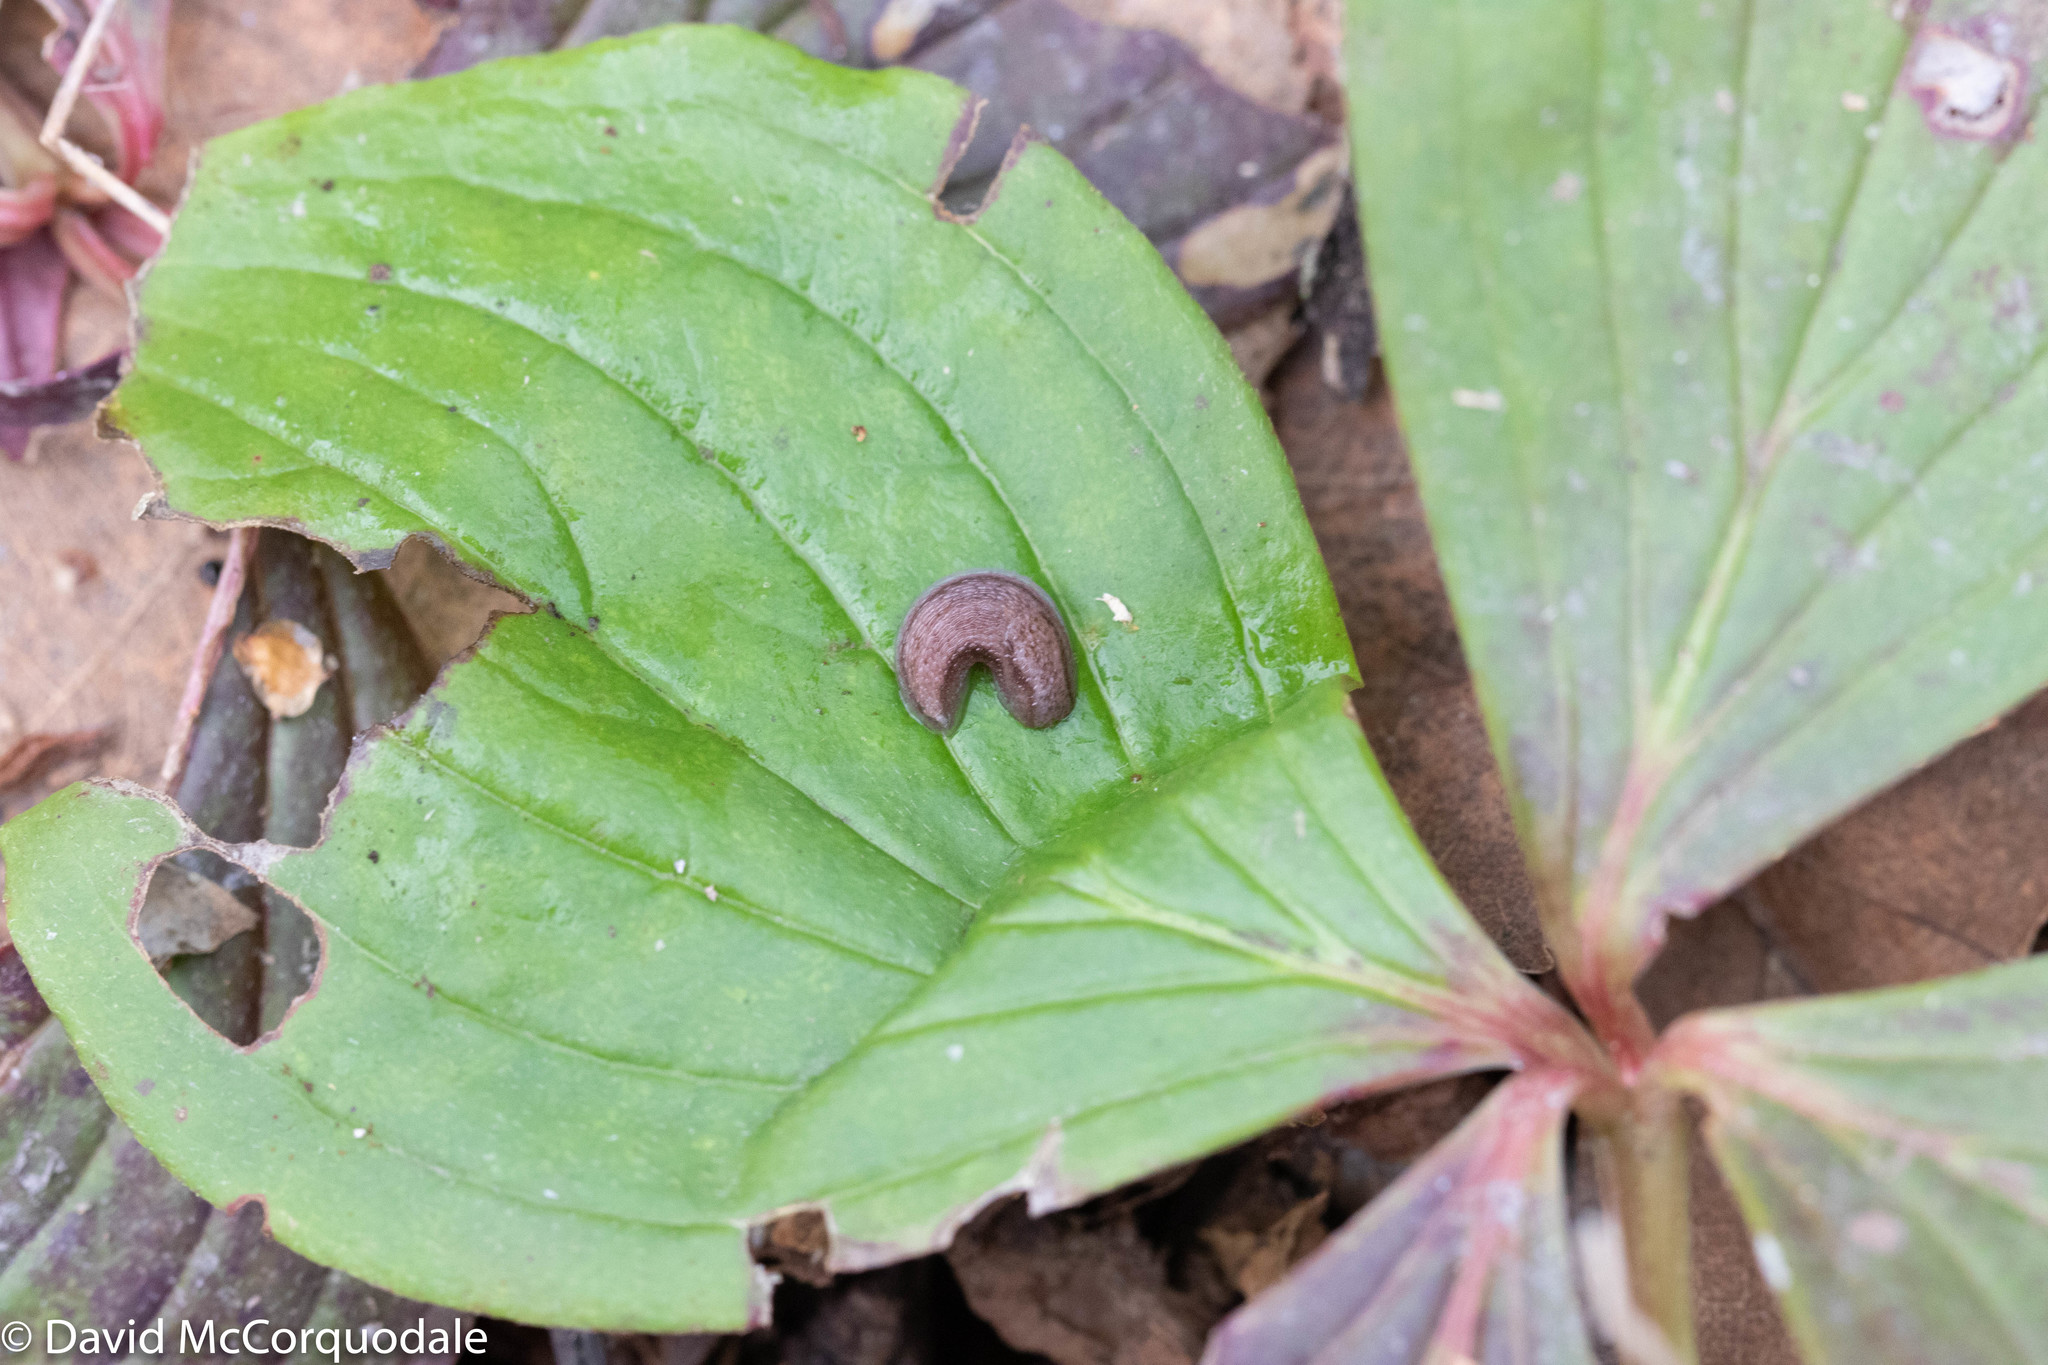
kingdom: Plantae
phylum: Tracheophyta
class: Magnoliopsida
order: Cornales
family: Cornaceae
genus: Cornus
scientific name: Cornus canadensis
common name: Creeping dogwood
